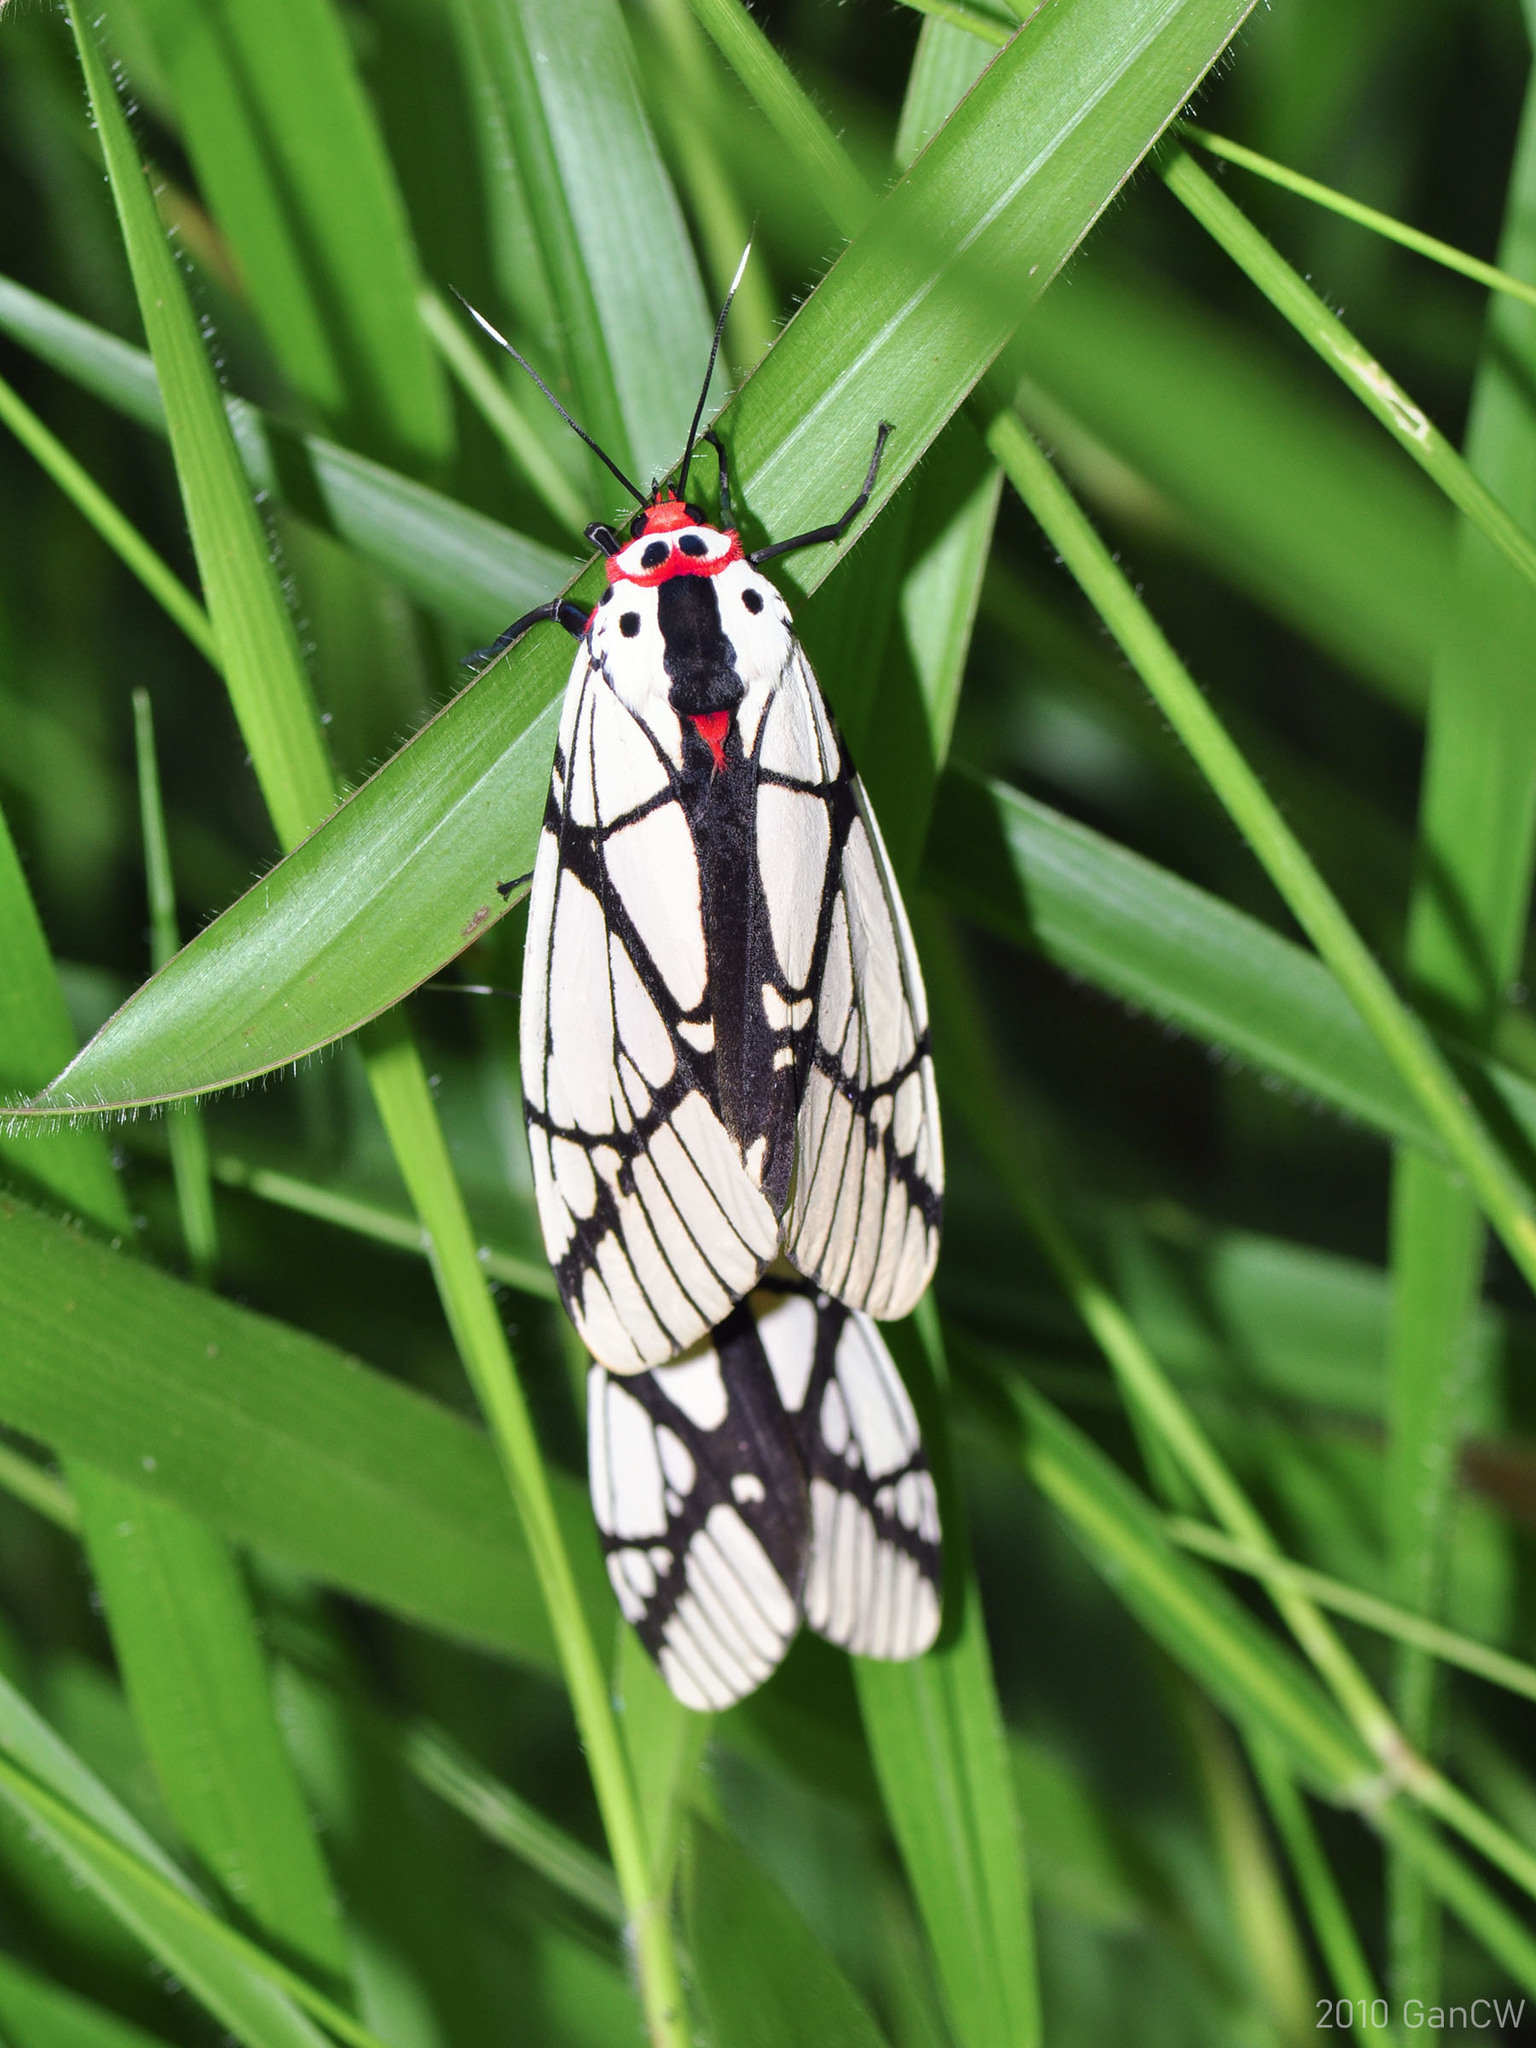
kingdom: Animalia
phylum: Arthropoda
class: Insecta
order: Lepidoptera
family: Erebidae
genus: Areas
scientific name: Areas galactina
